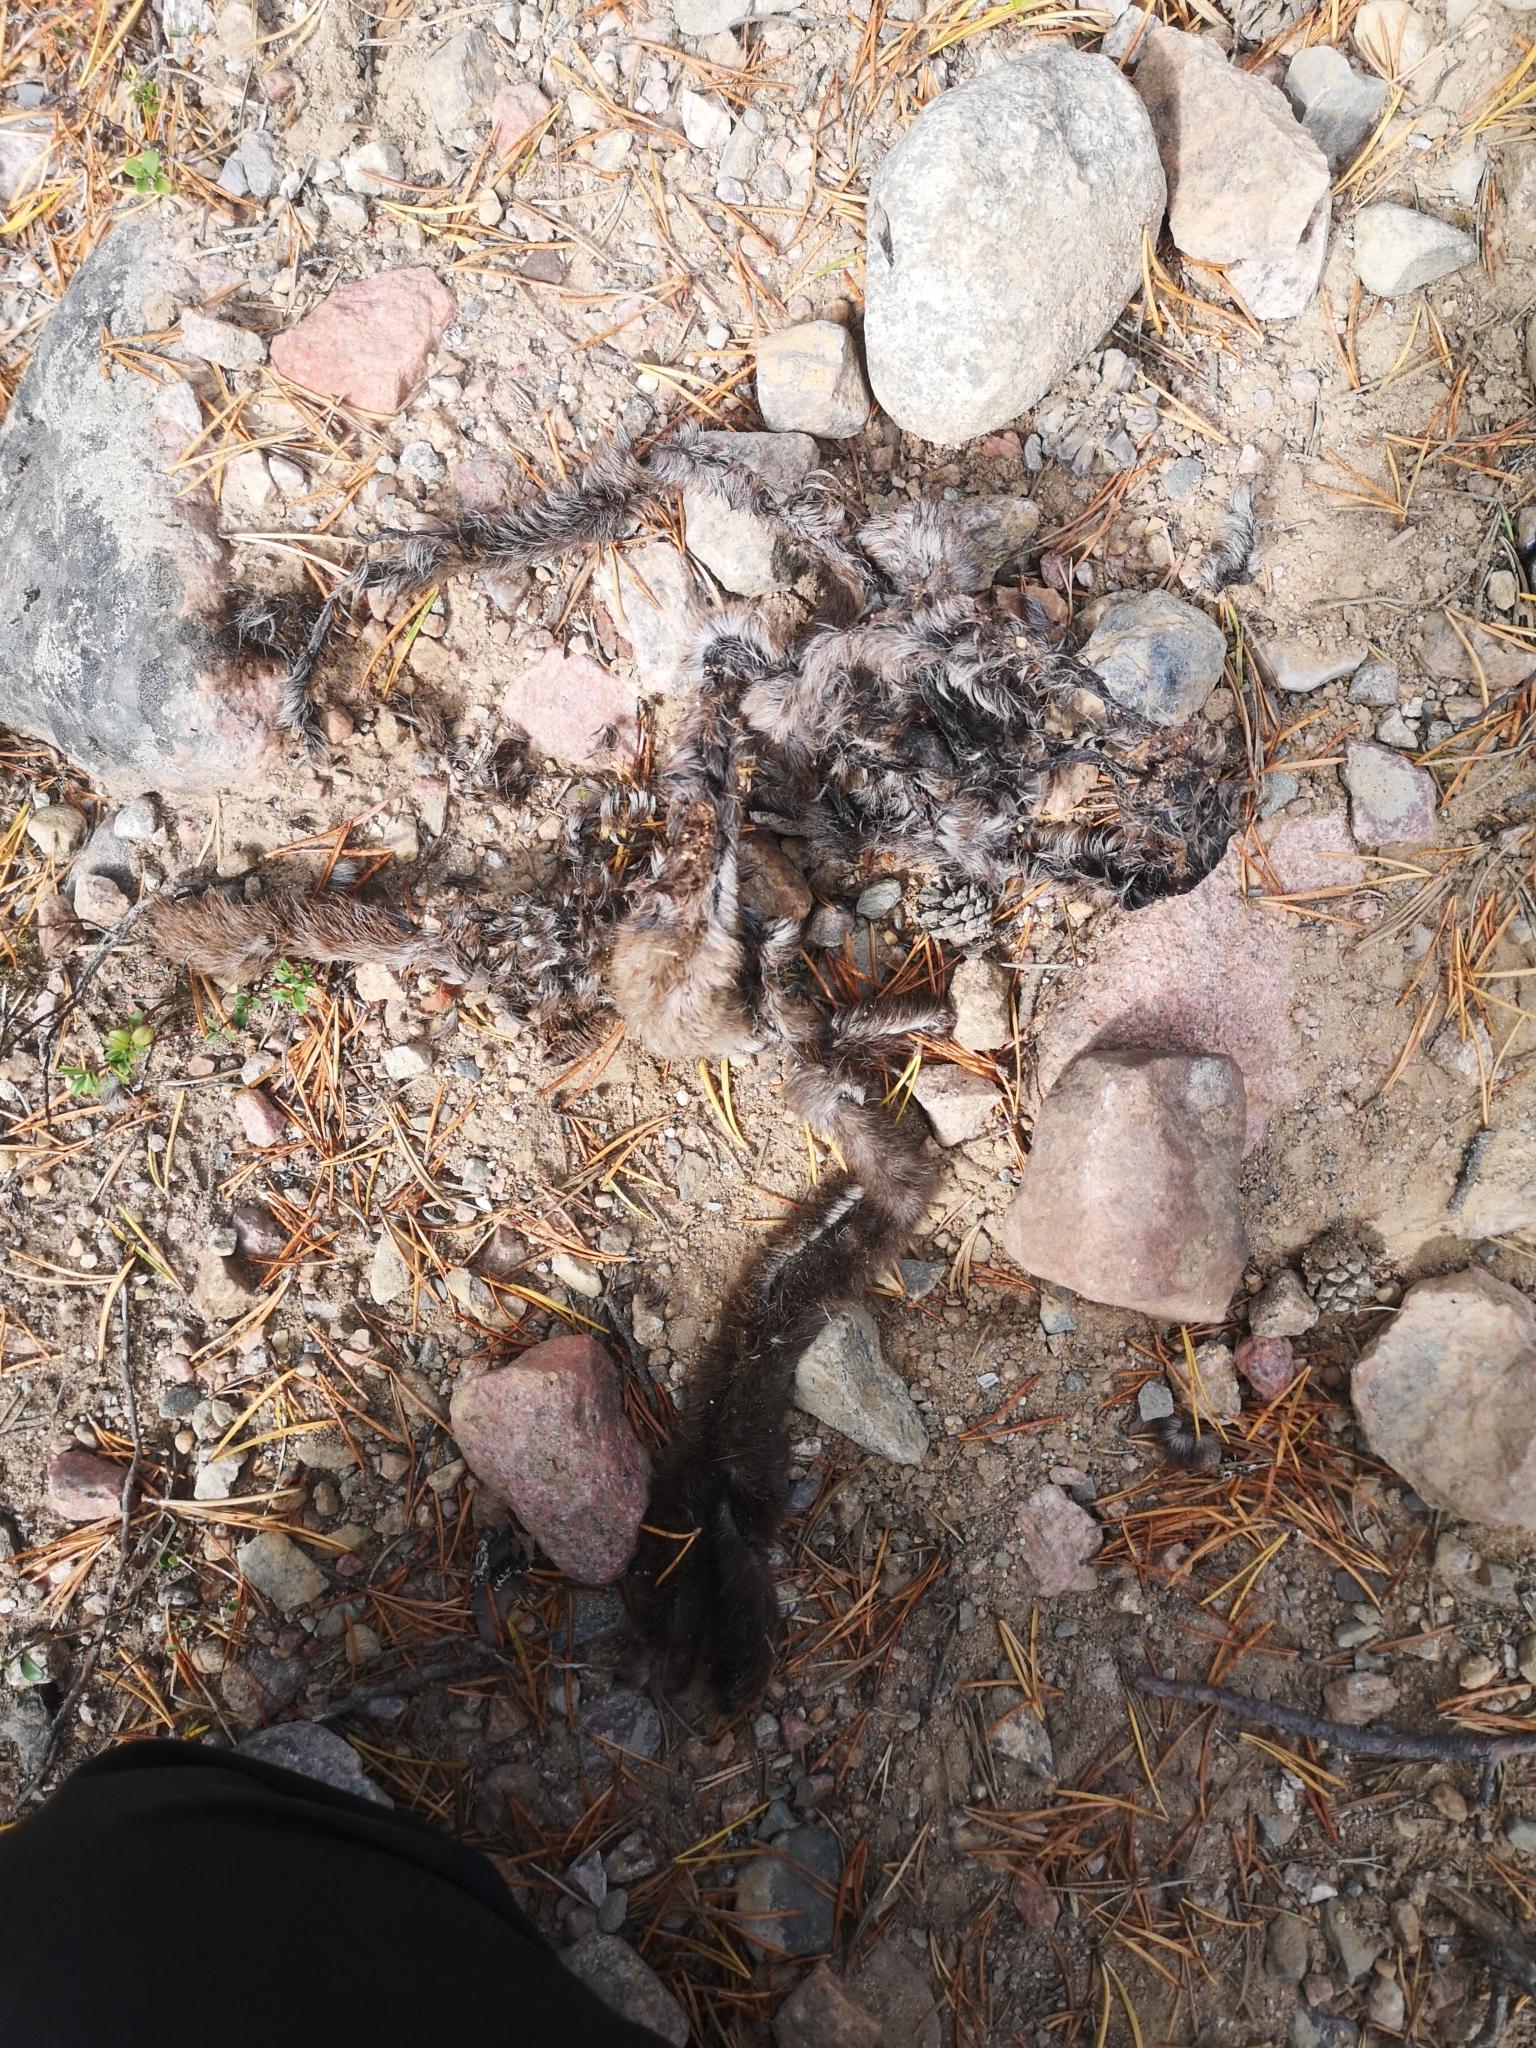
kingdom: Animalia
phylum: Chordata
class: Mammalia
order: Lagomorpha
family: Leporidae
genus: Lepus
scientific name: Lepus timidus
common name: Mountain hare
